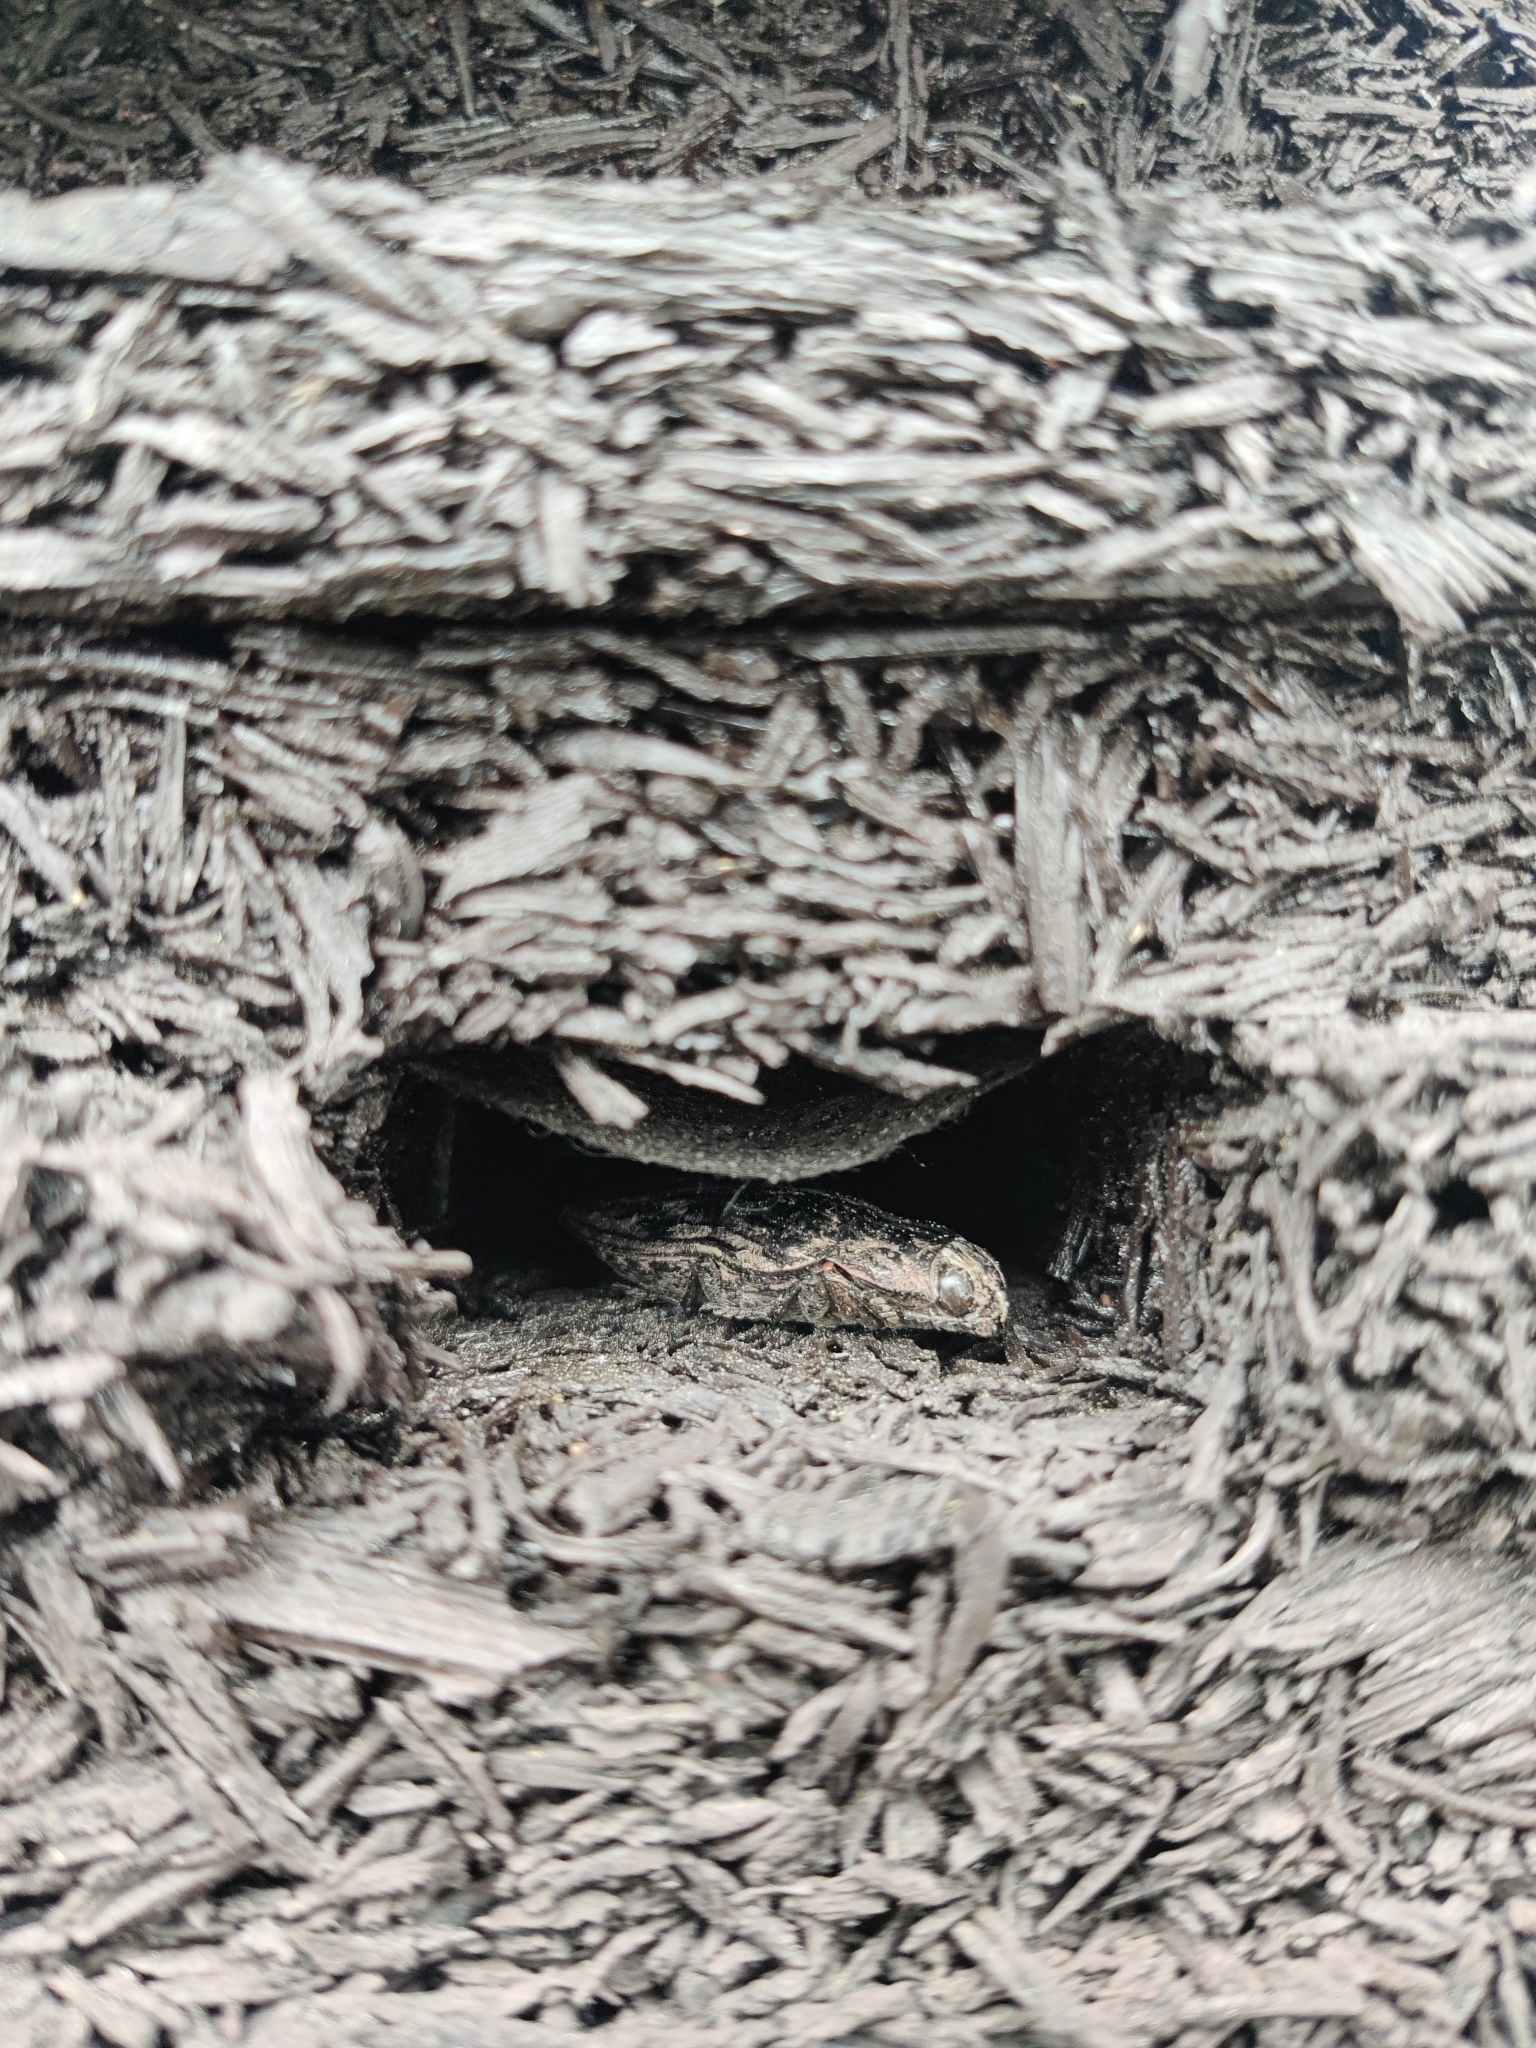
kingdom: Animalia
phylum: Arthropoda
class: Insecta
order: Coleoptera
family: Buprestidae
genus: Chalcophora
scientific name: Chalcophora virginiensis
